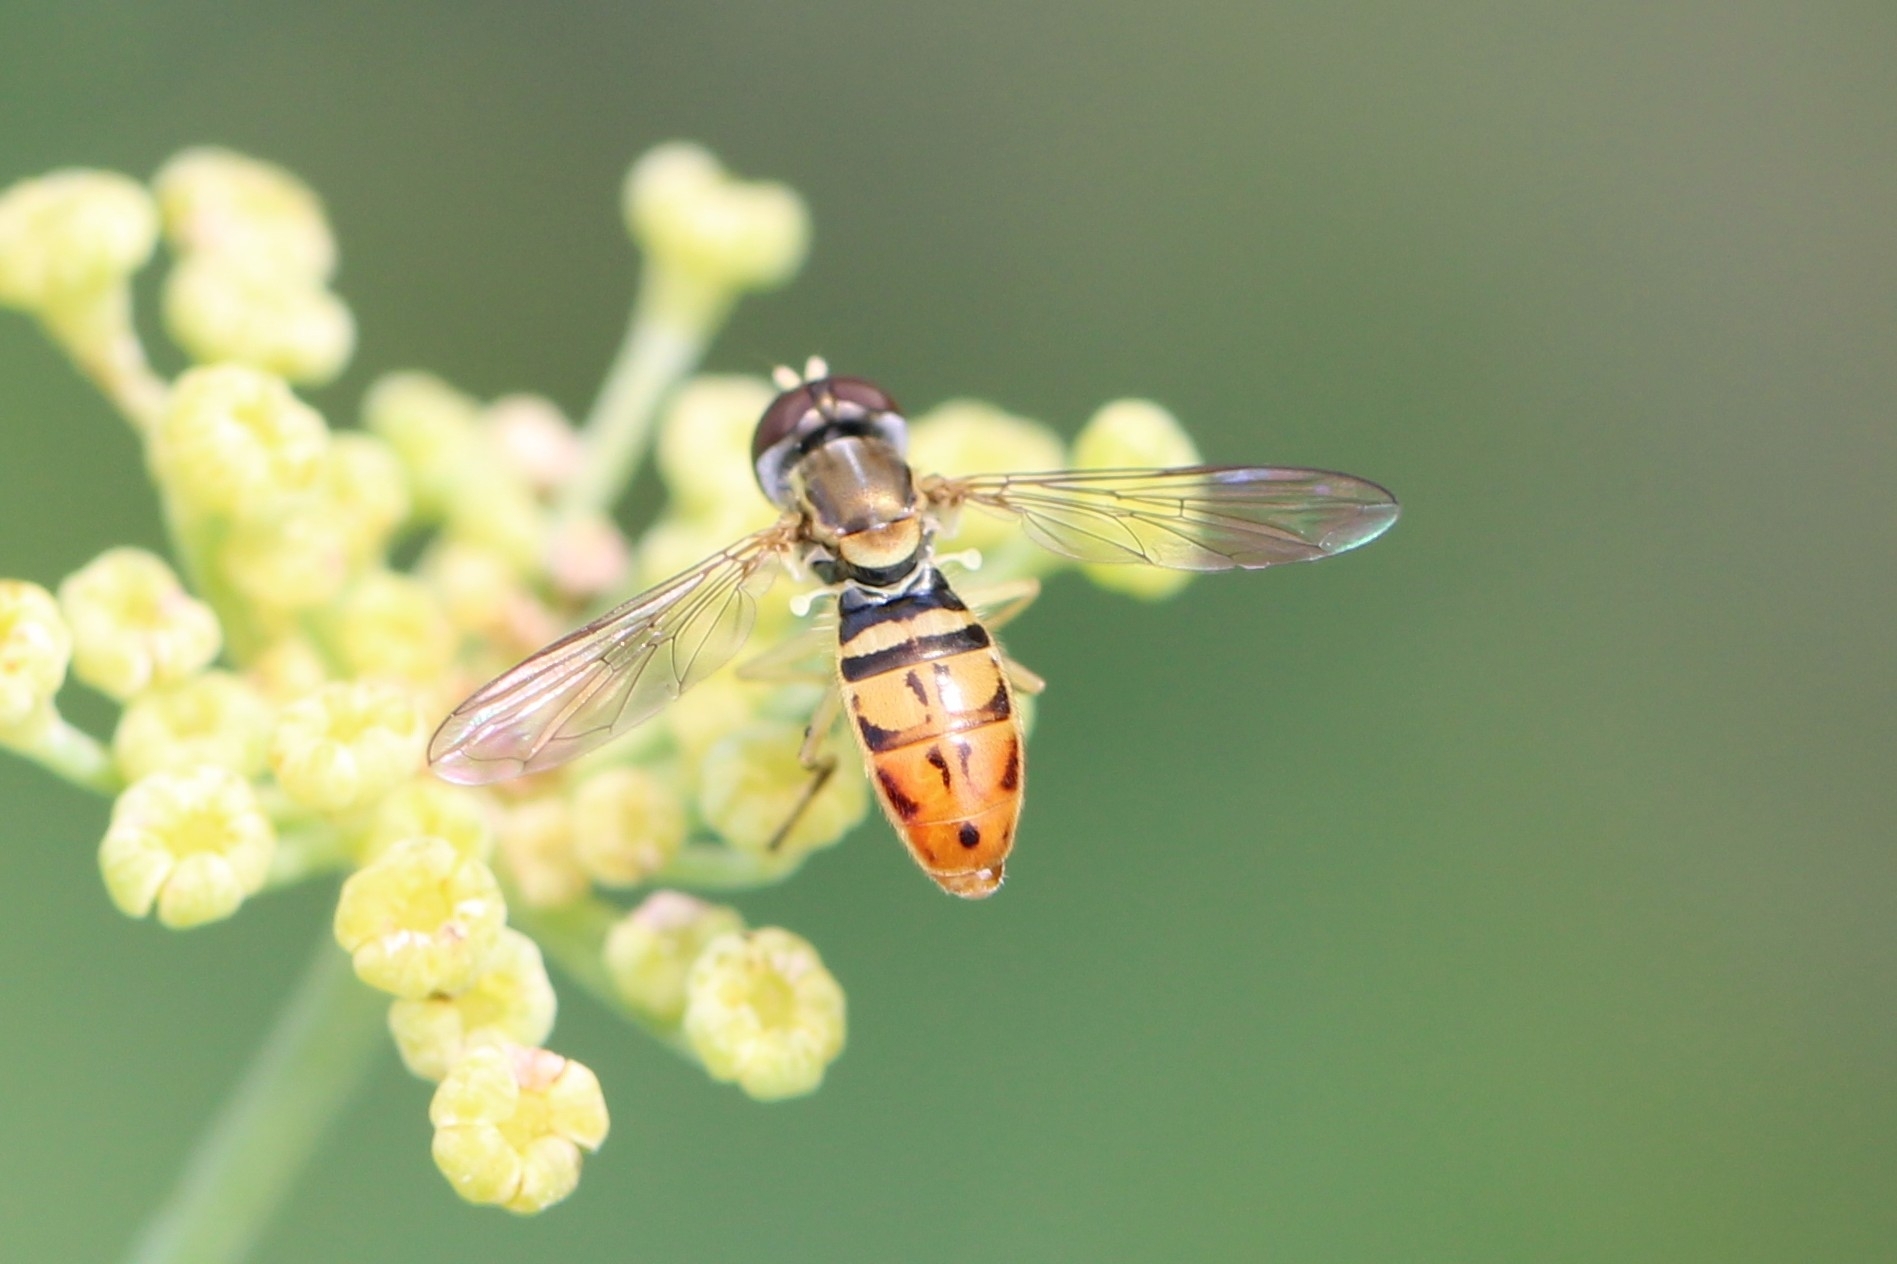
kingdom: Animalia
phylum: Arthropoda
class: Insecta
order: Diptera
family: Syrphidae
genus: Toxomerus
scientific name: Toxomerus marginatus
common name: Syrphid fly
